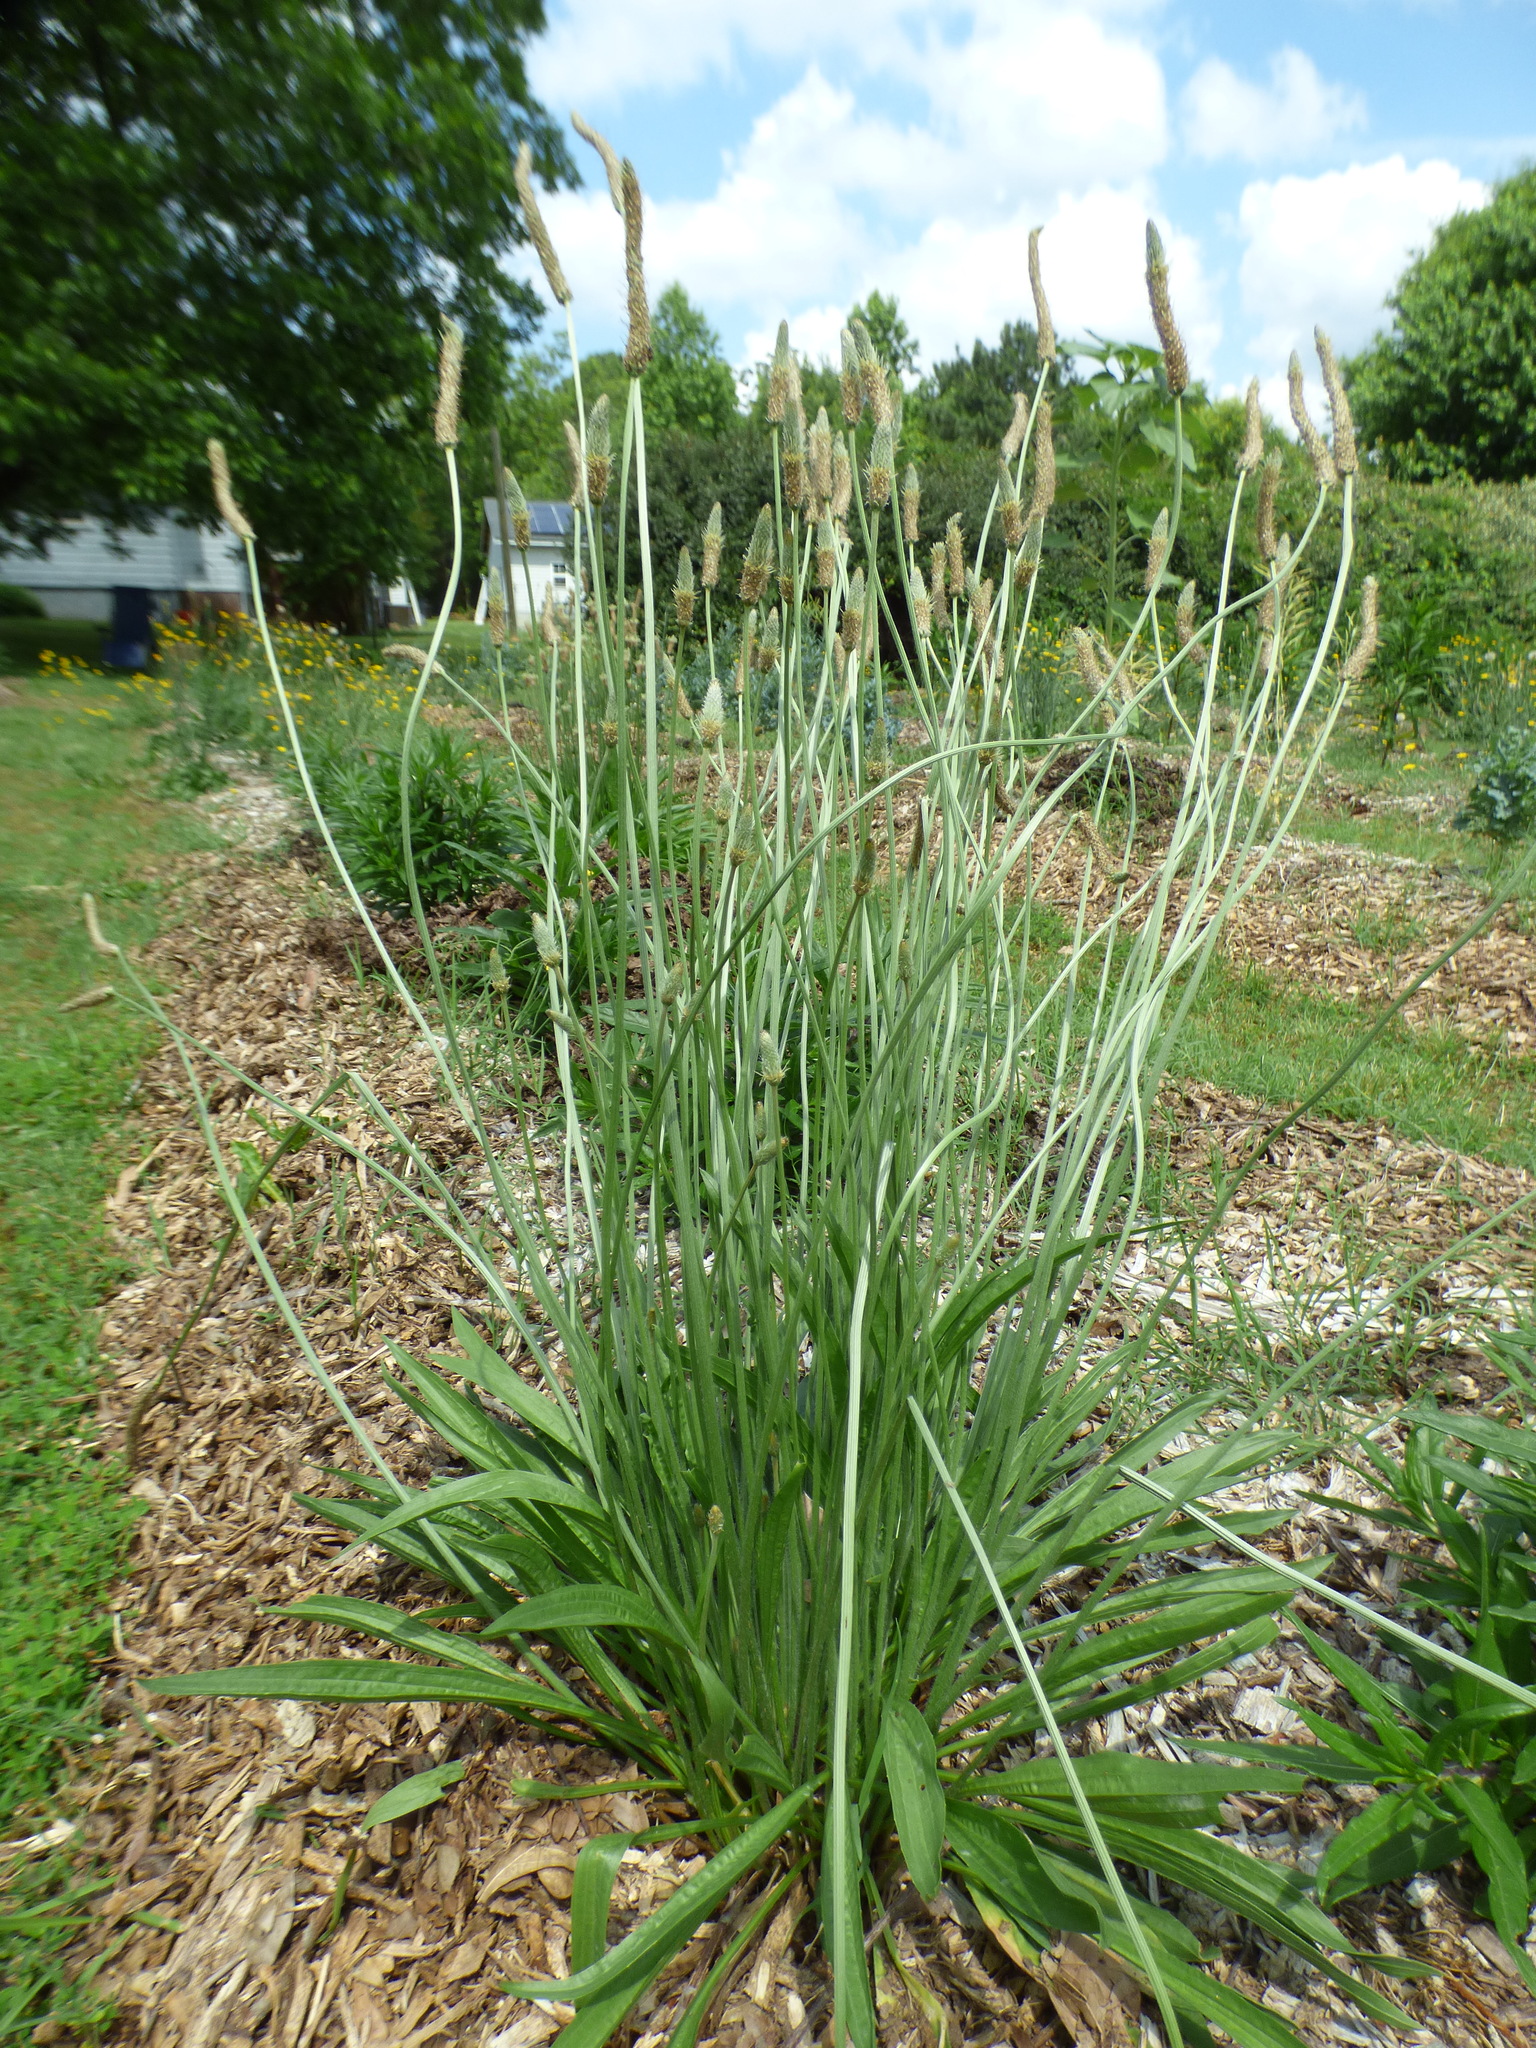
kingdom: Plantae
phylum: Tracheophyta
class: Magnoliopsida
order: Lamiales
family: Plantaginaceae
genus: Plantago
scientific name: Plantago lanceolata
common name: Ribwort plantain
